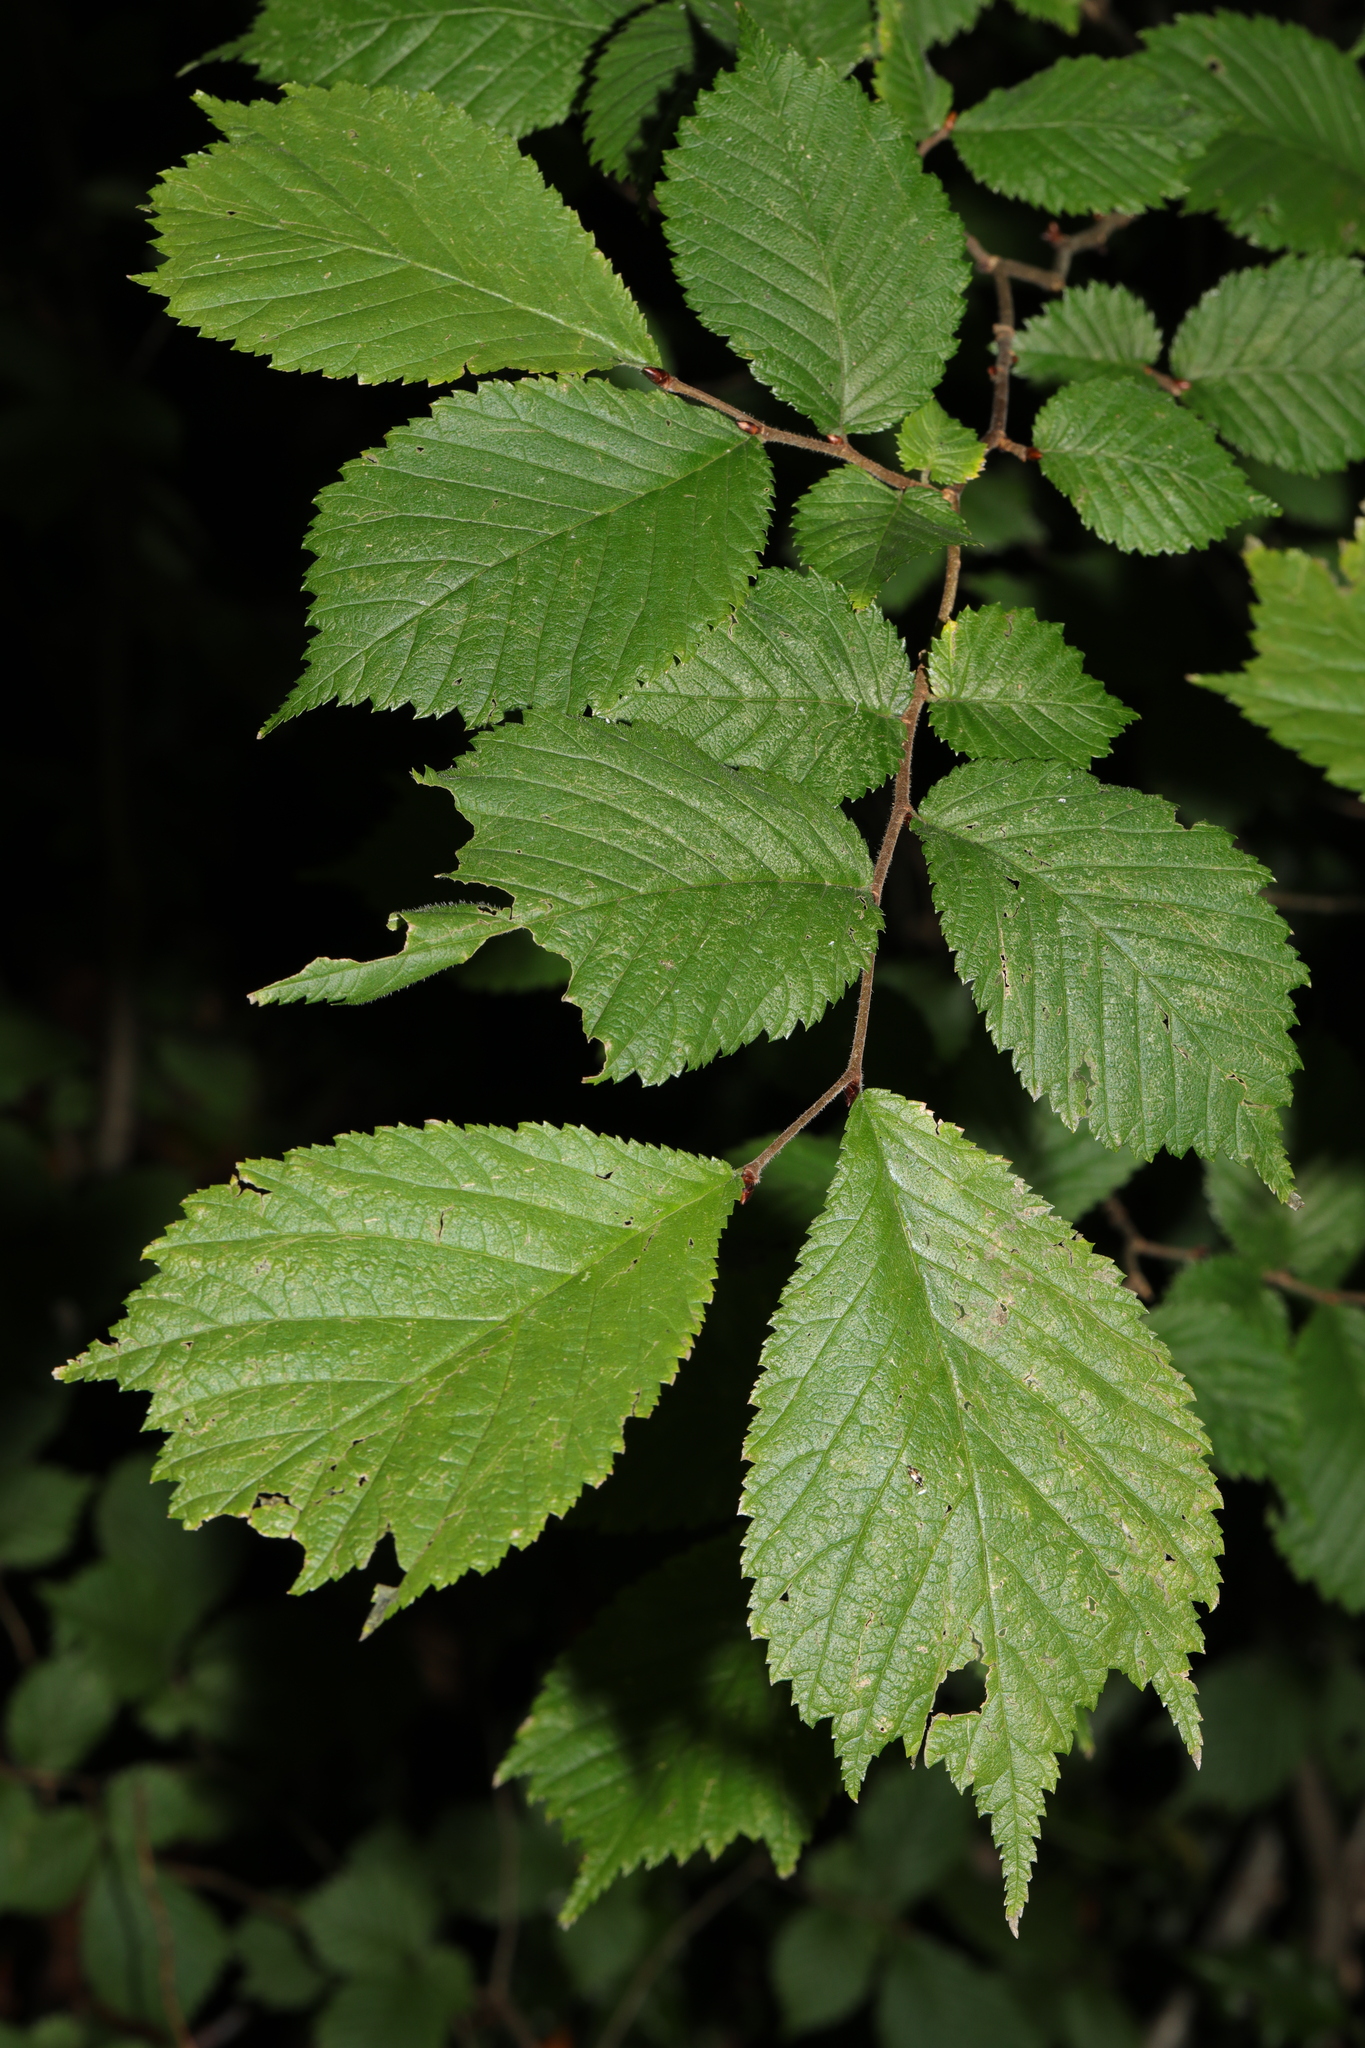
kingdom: Plantae
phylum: Tracheophyta
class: Magnoliopsida
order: Rosales
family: Ulmaceae
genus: Ulmus
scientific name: Ulmus glabra
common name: Wych elm
